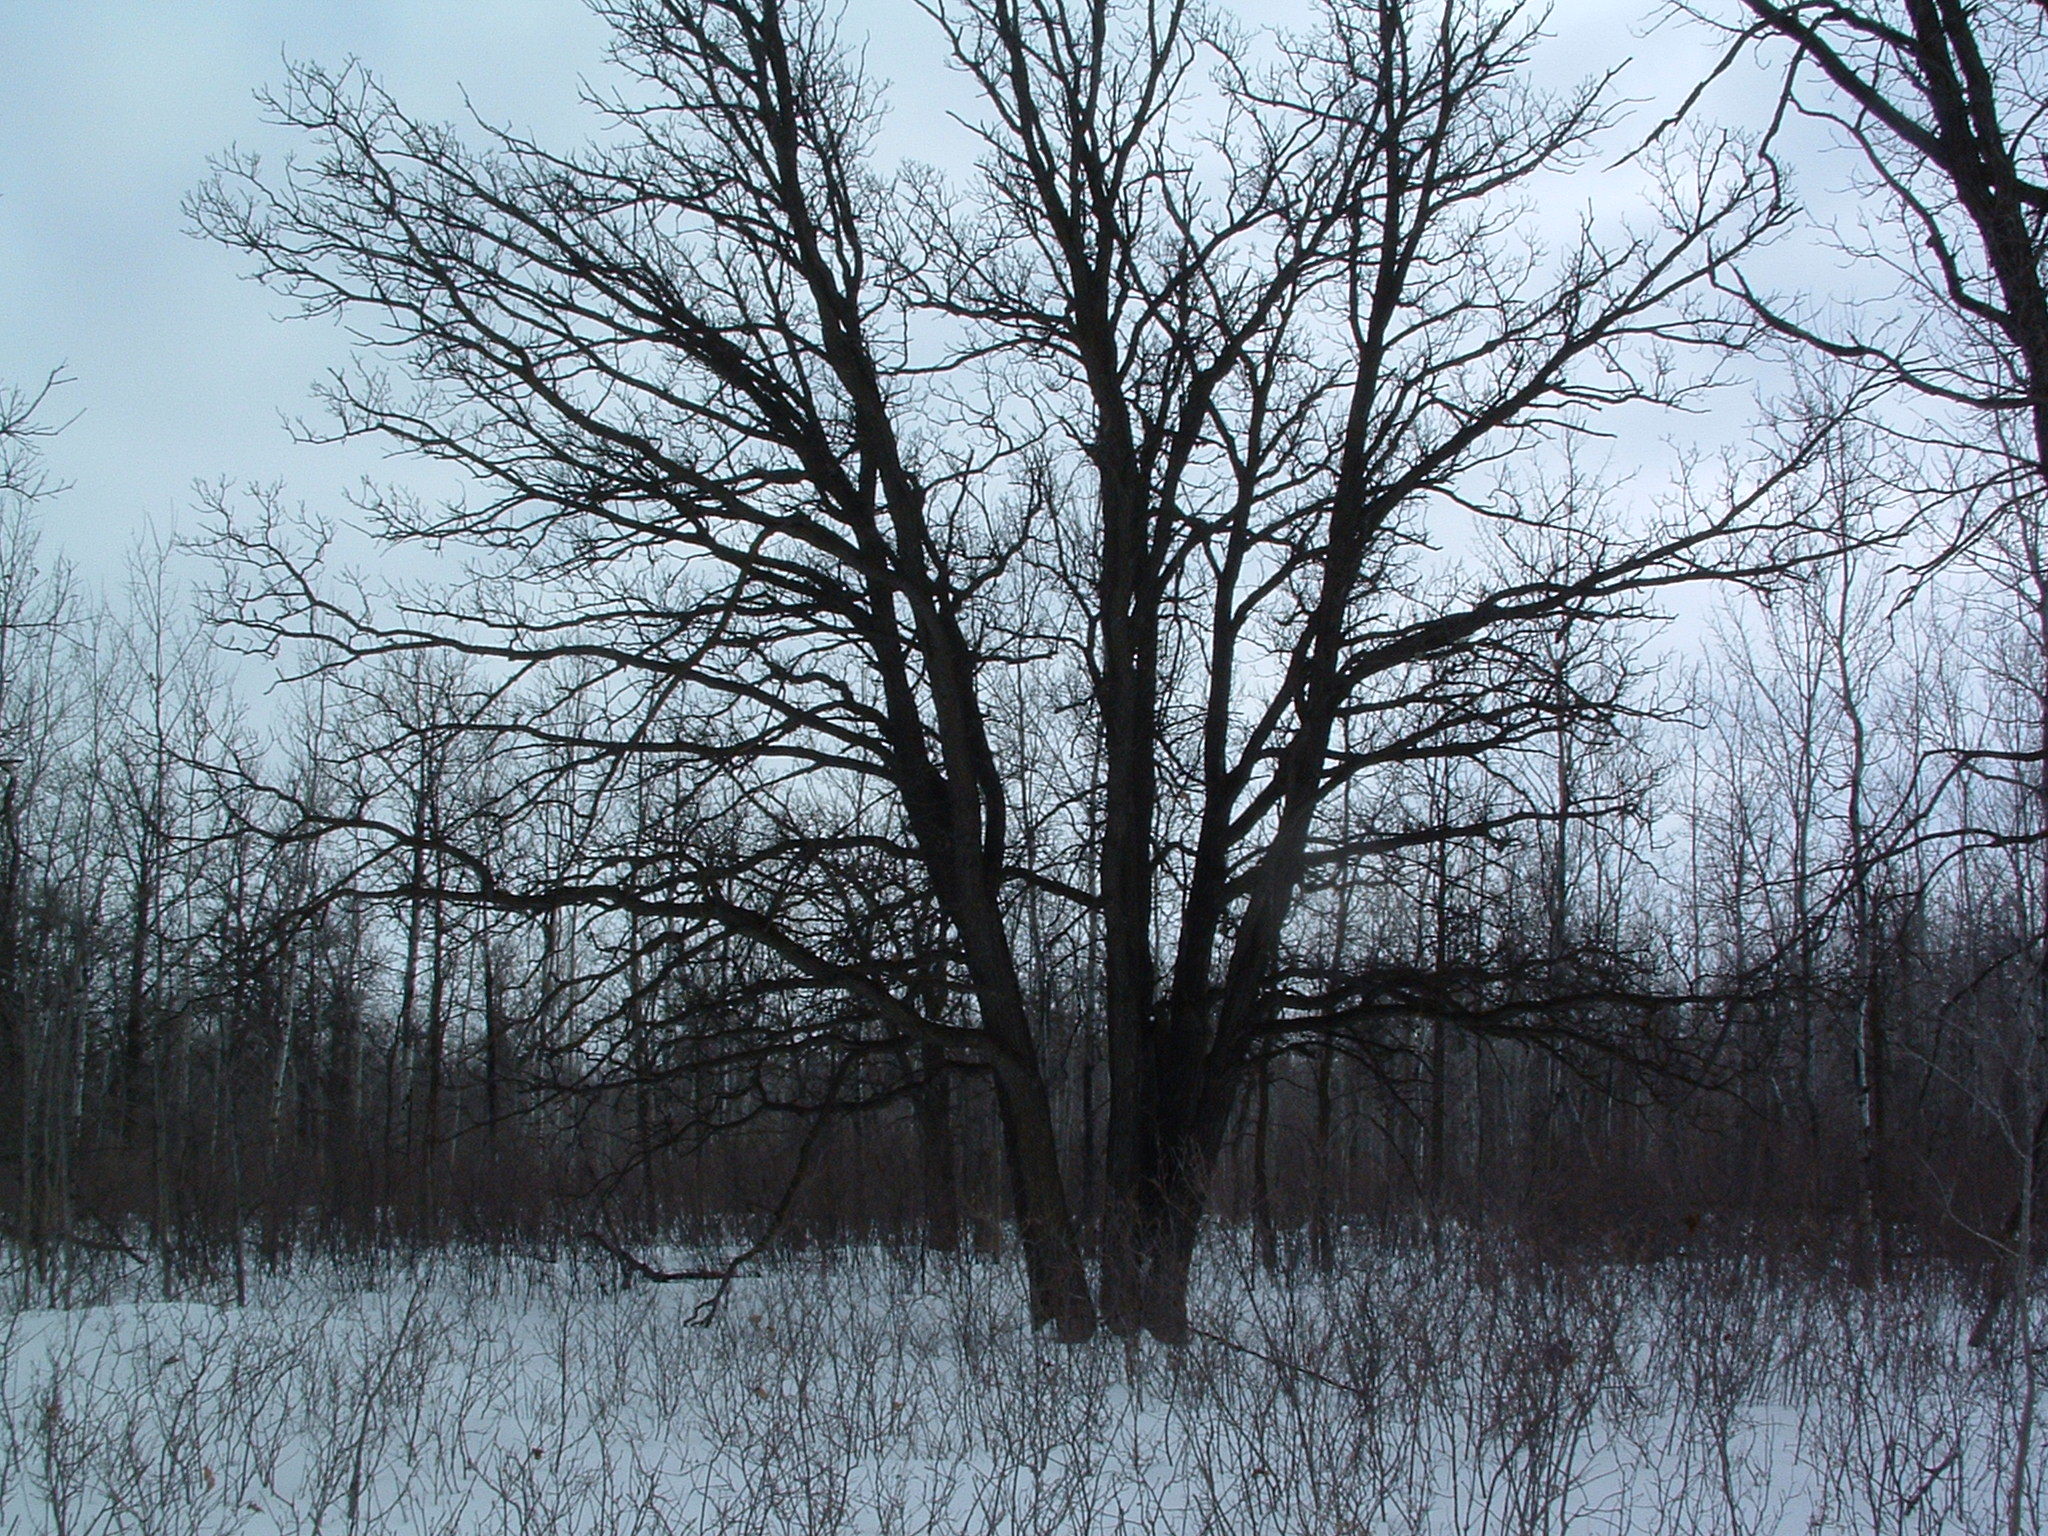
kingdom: Plantae
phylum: Tracheophyta
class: Magnoliopsida
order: Fagales
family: Fagaceae
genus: Quercus
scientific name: Quercus macrocarpa
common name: Bur oak
